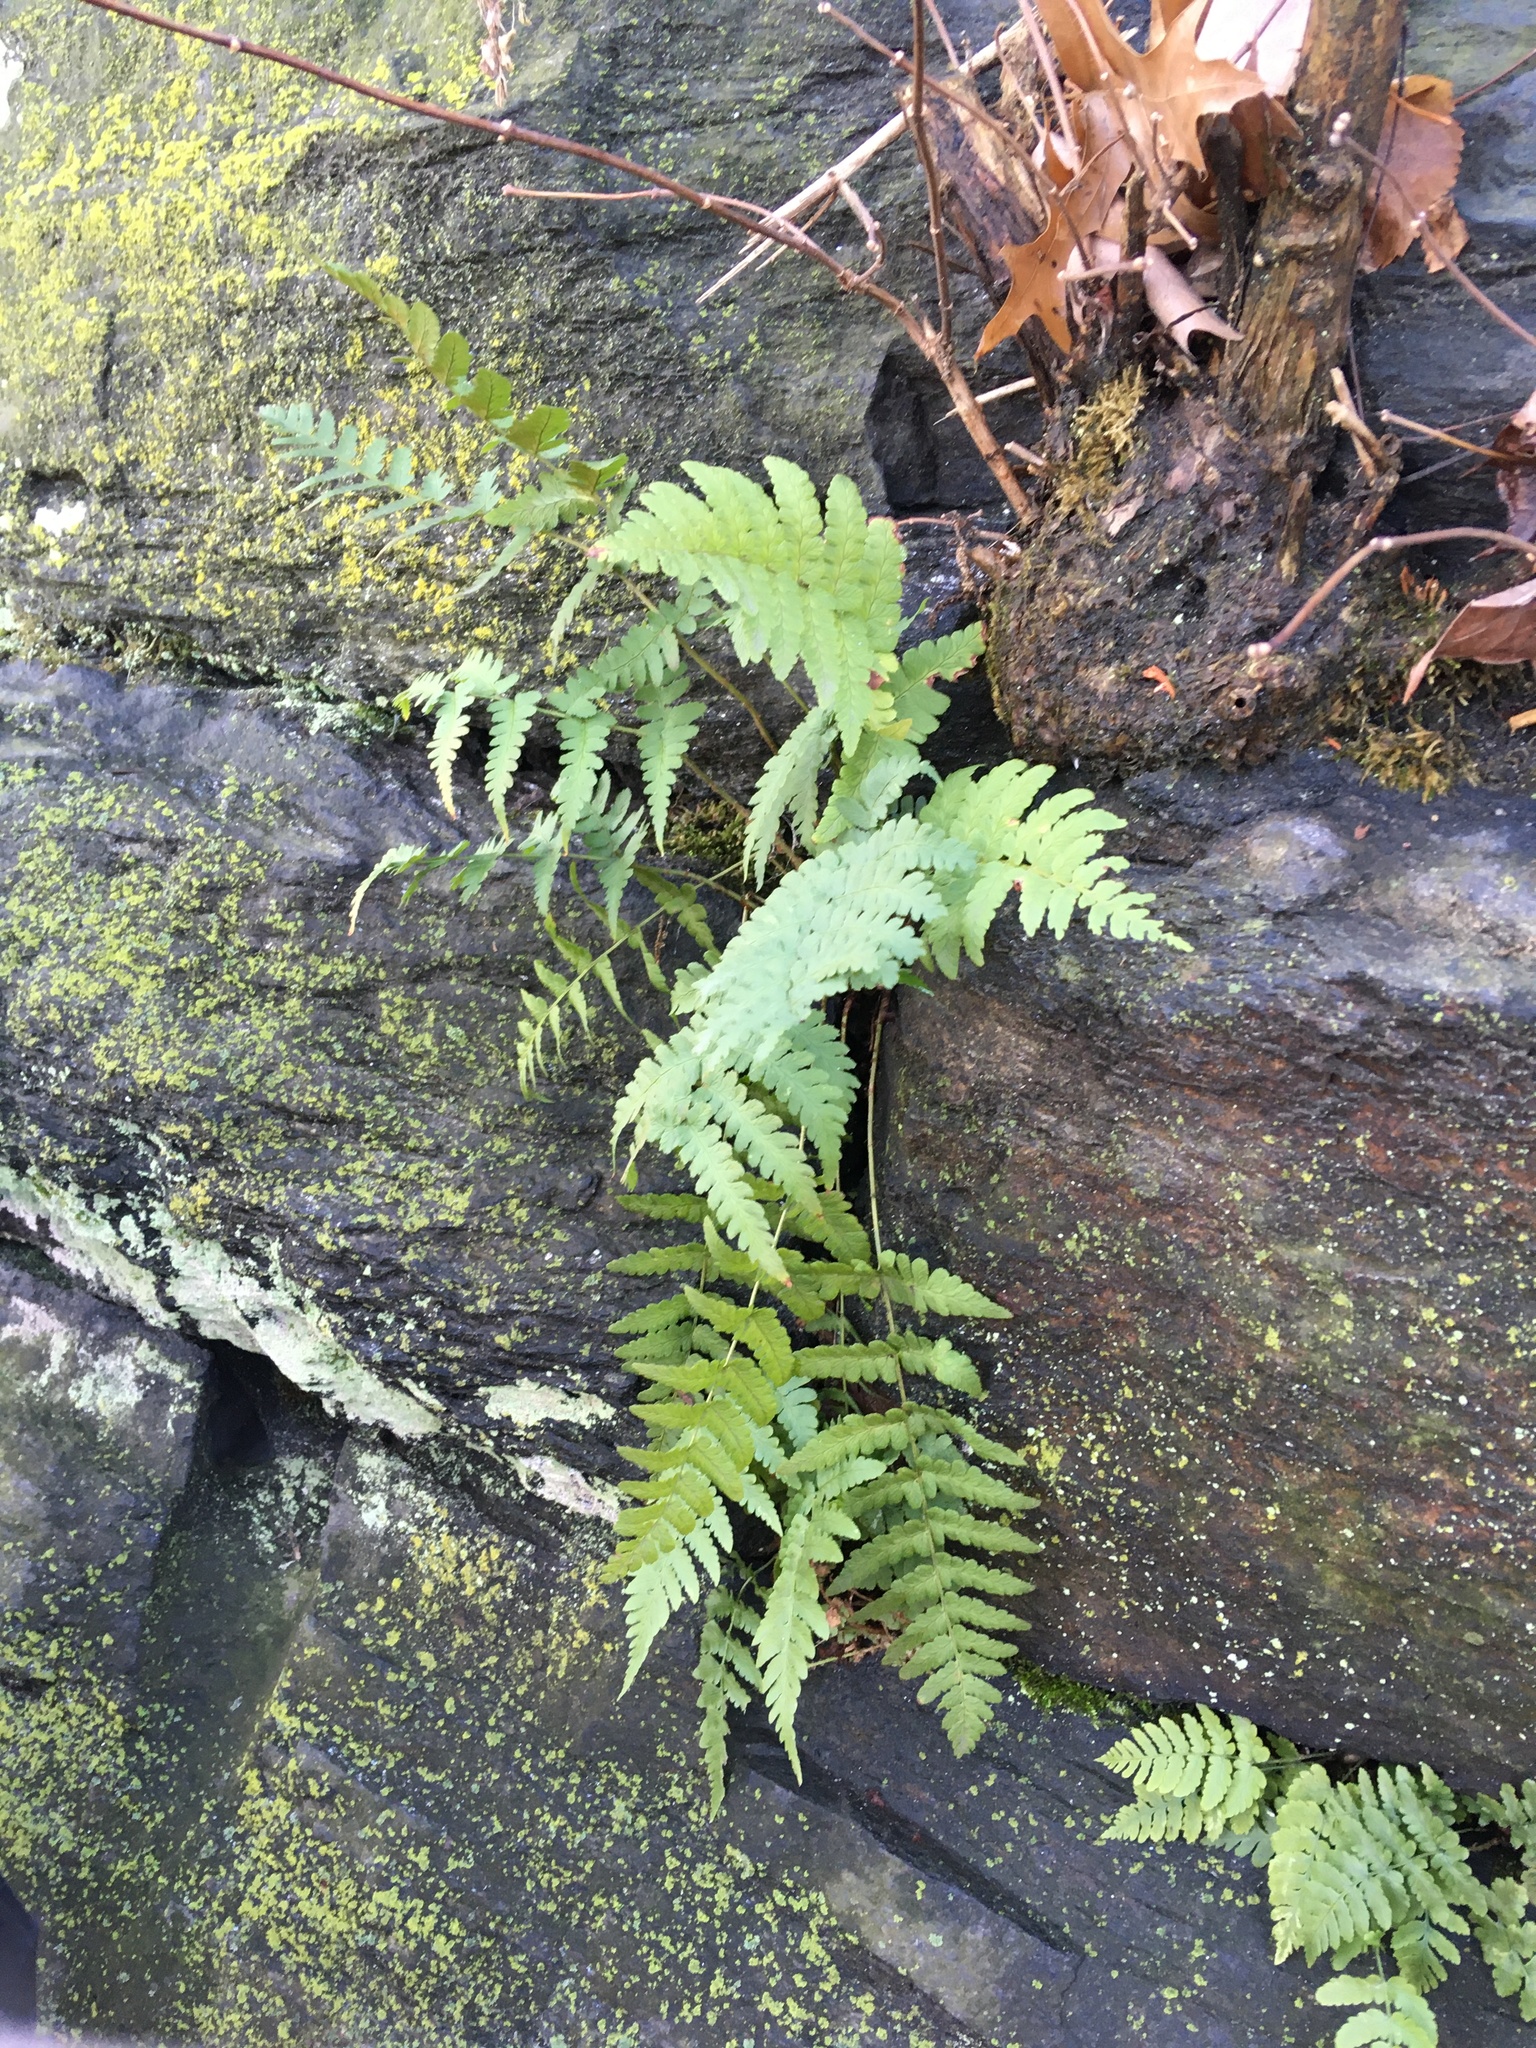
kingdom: Plantae
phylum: Tracheophyta
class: Polypodiopsida
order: Polypodiales
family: Dryopteridaceae
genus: Dryopteris
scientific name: Dryopteris marginalis
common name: Marginal wood fern
